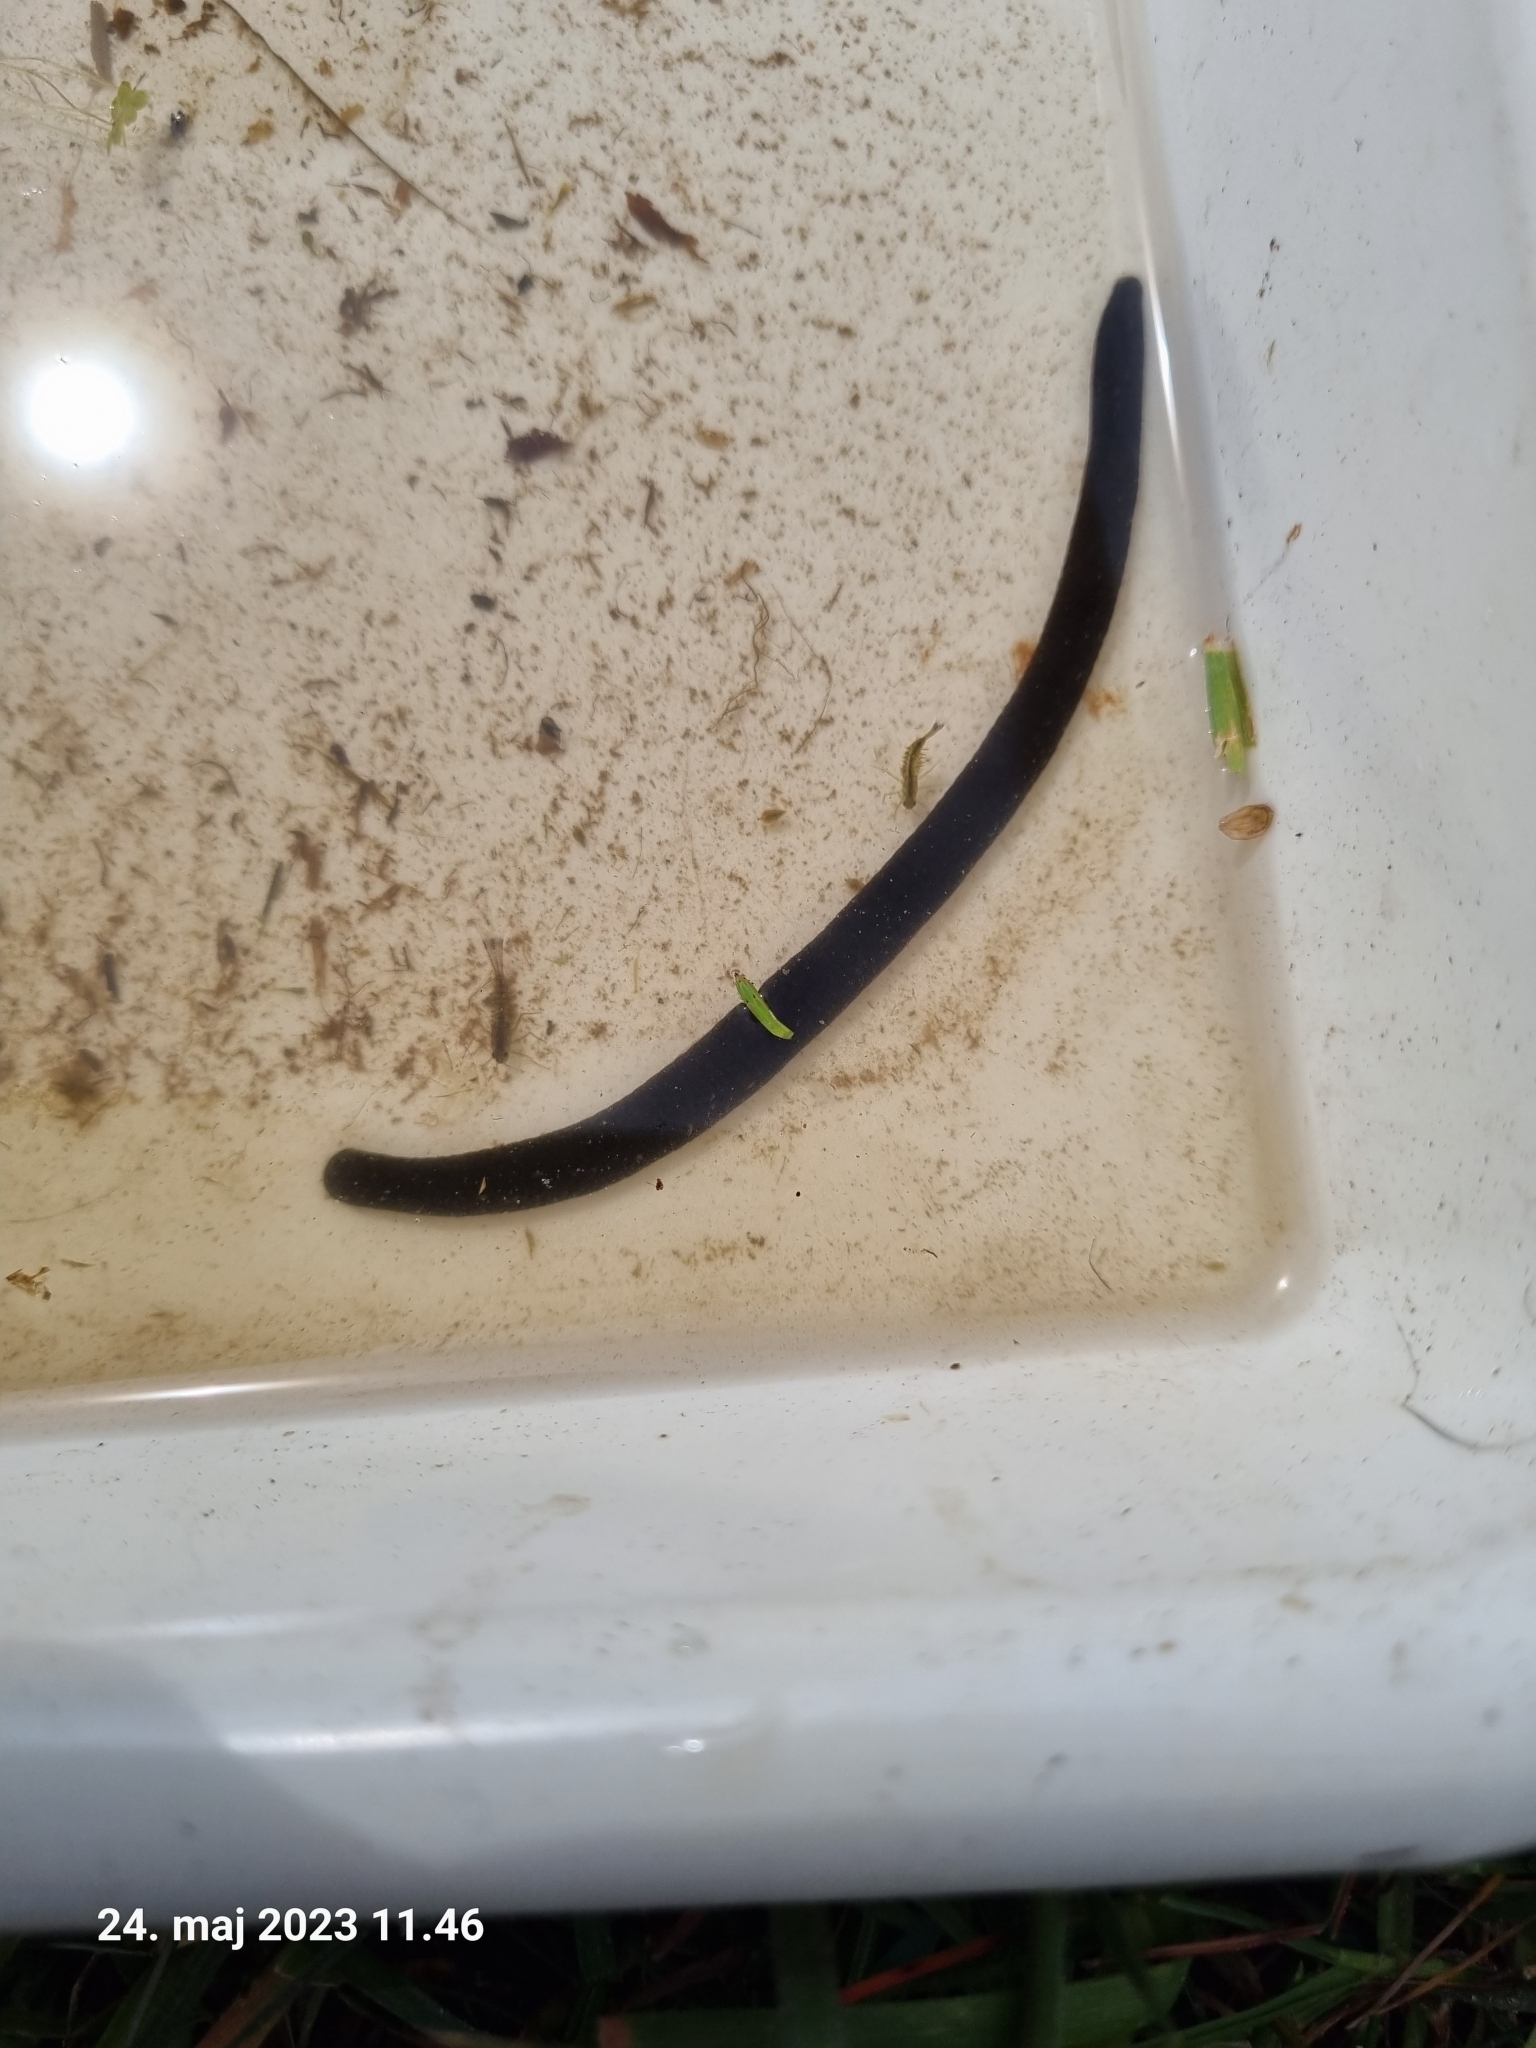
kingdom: Animalia
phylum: Annelida
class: Clitellata
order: Arhynchobdellida
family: Haemopidae
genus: Haemopis
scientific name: Haemopis sanguisuga
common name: Horse leech
